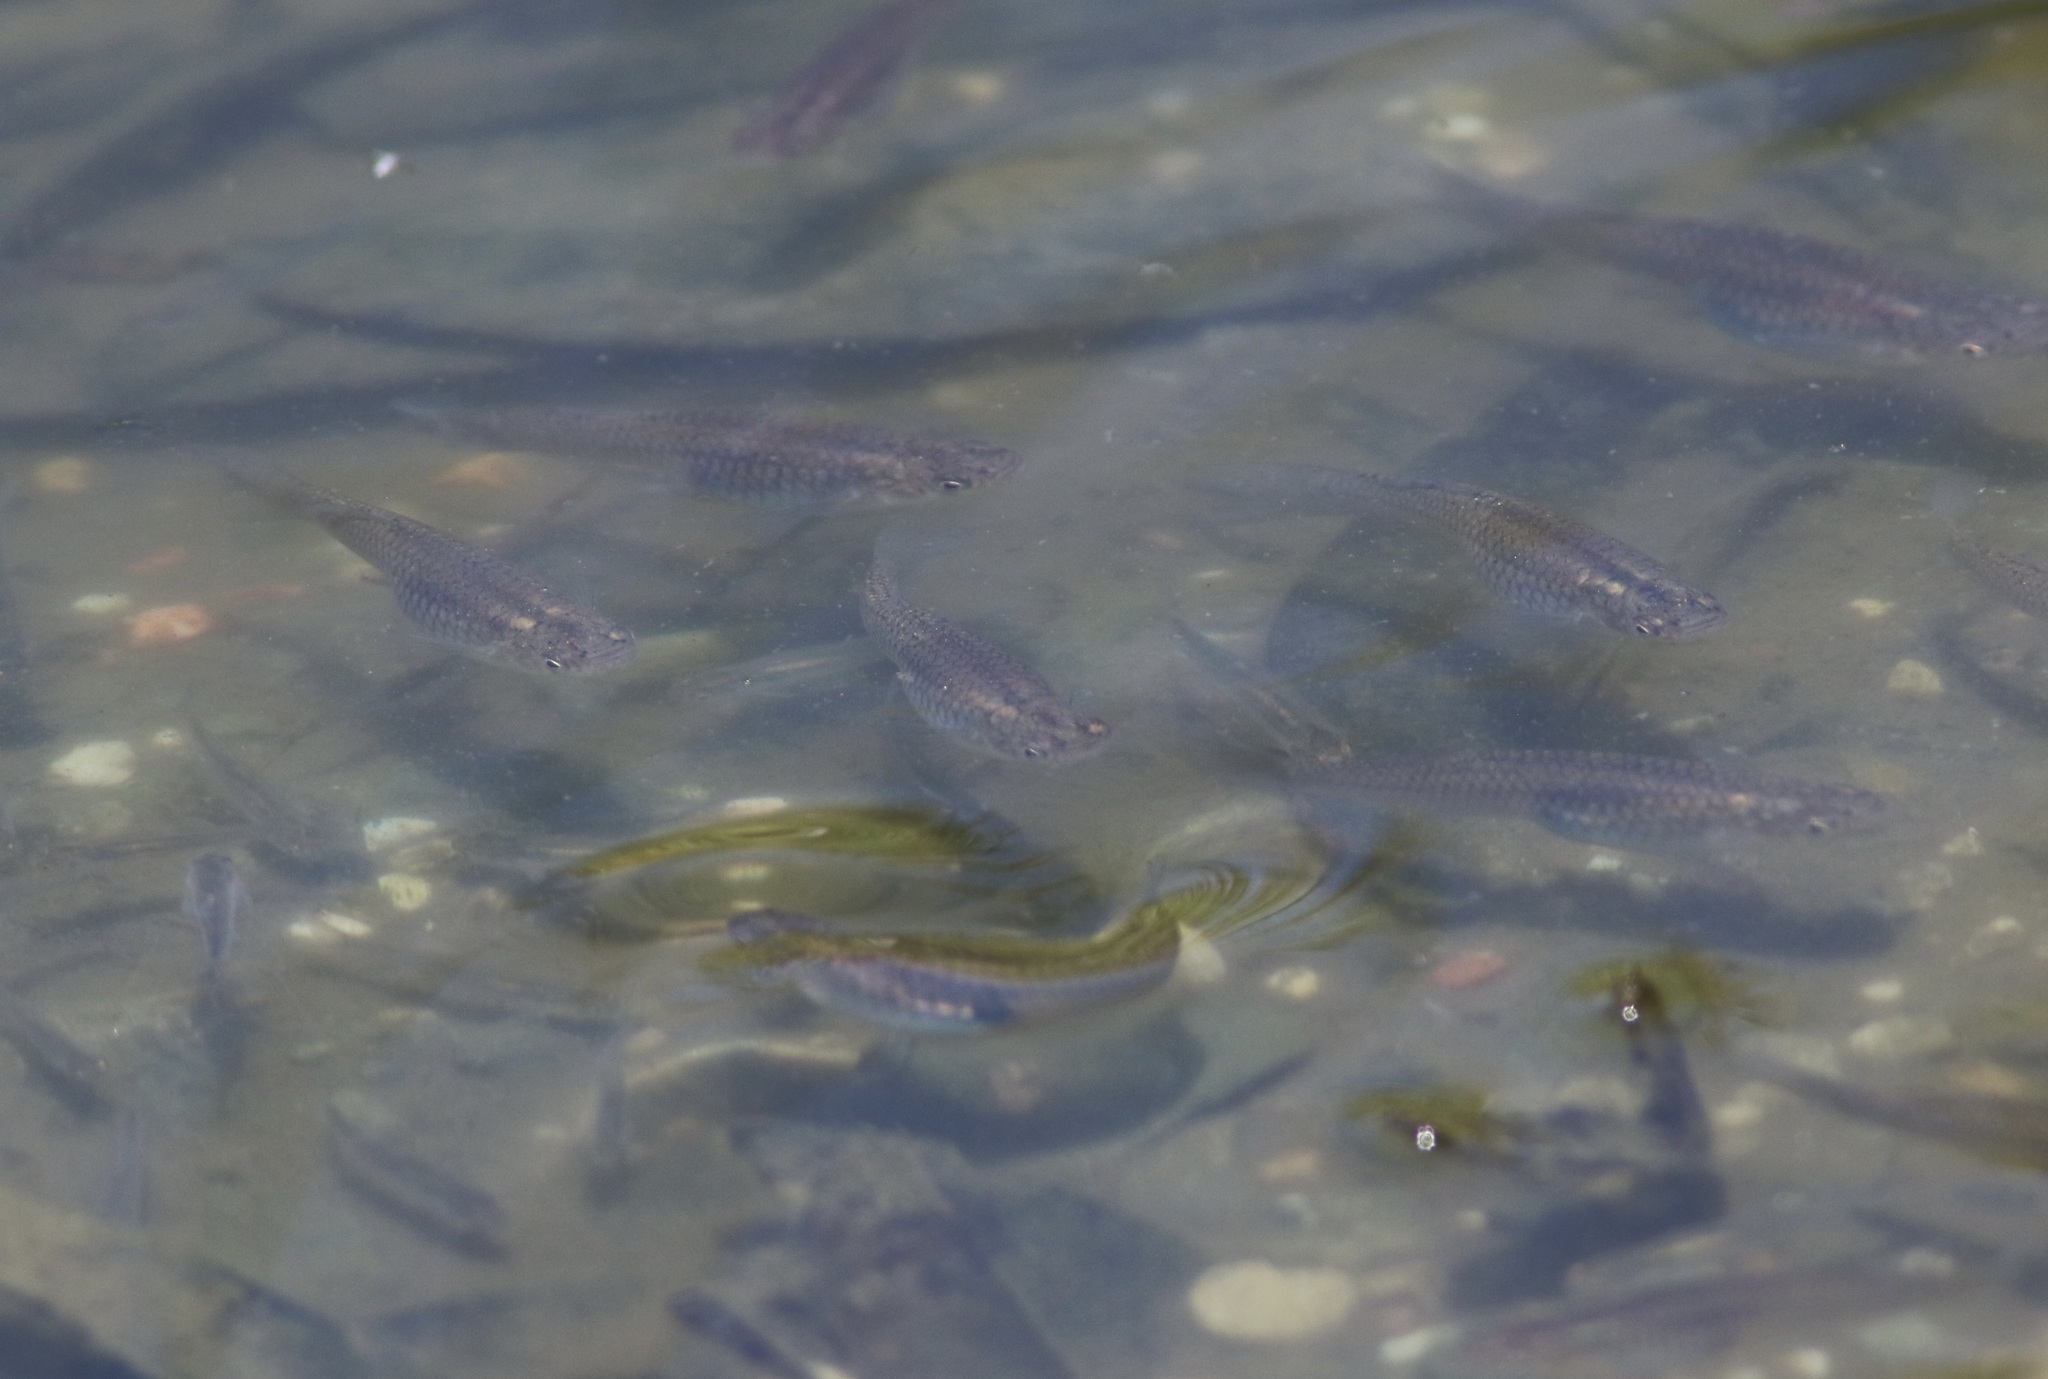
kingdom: Animalia
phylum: Chordata
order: Cyprinodontiformes
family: Poeciliidae
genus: Gambusia
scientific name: Gambusia affinis
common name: Mosquitofish
